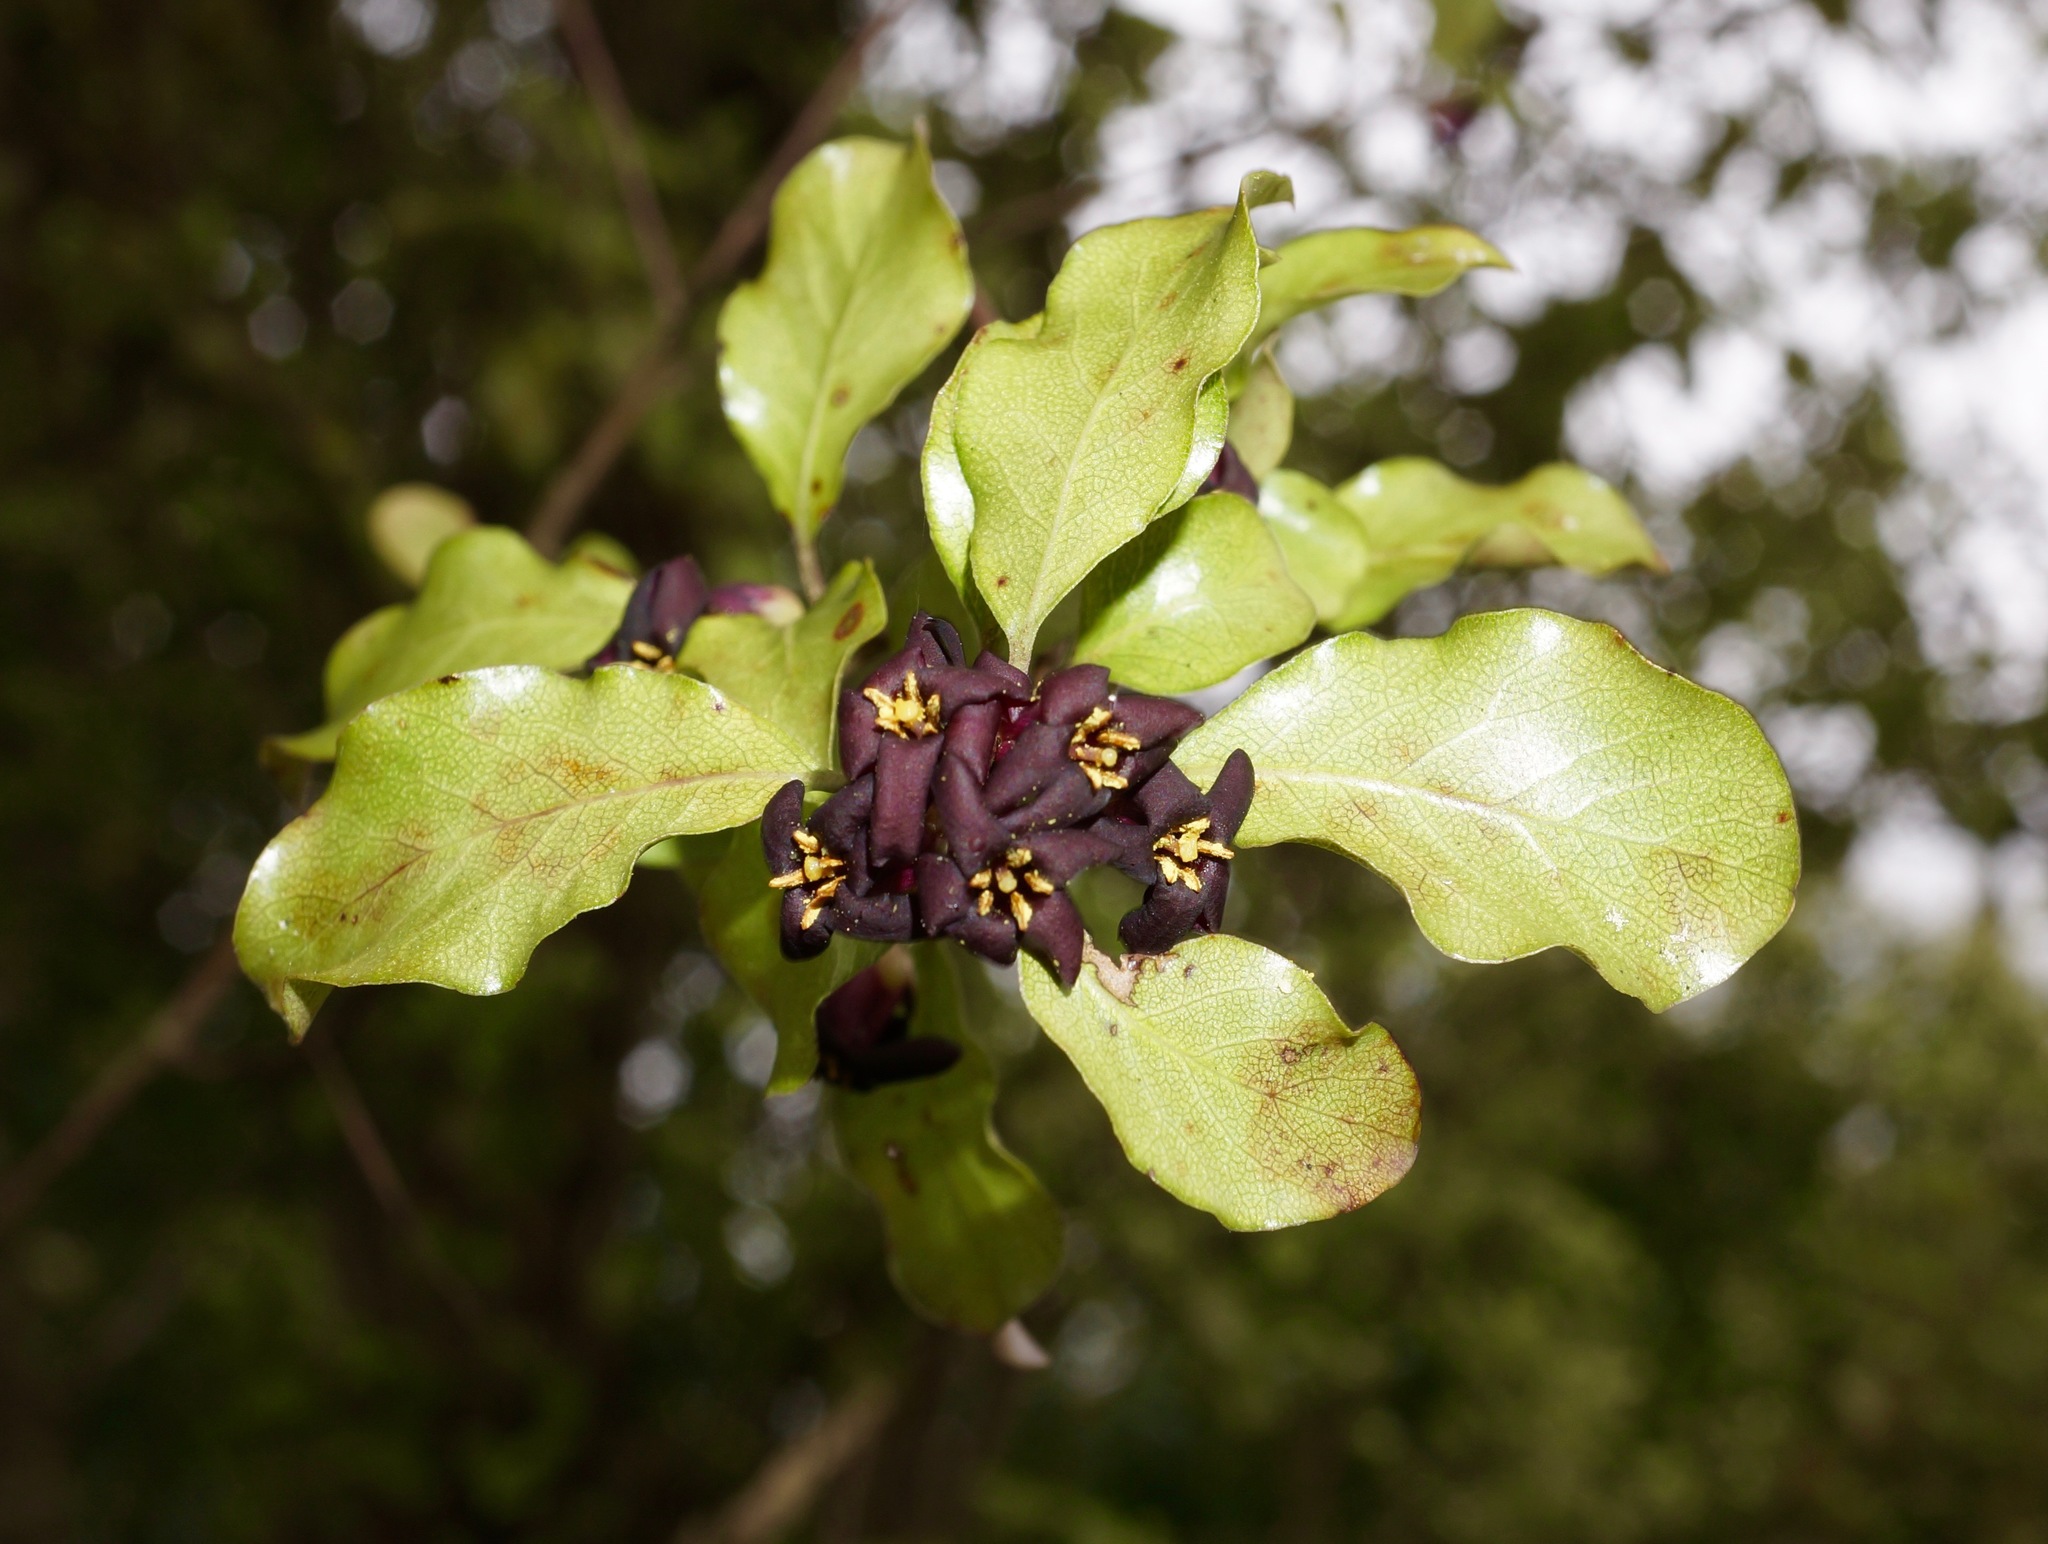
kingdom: Plantae
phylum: Tracheophyta
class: Magnoliopsida
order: Apiales
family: Pittosporaceae
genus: Pittosporum
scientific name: Pittosporum tenuifolium
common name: Kohuhu
